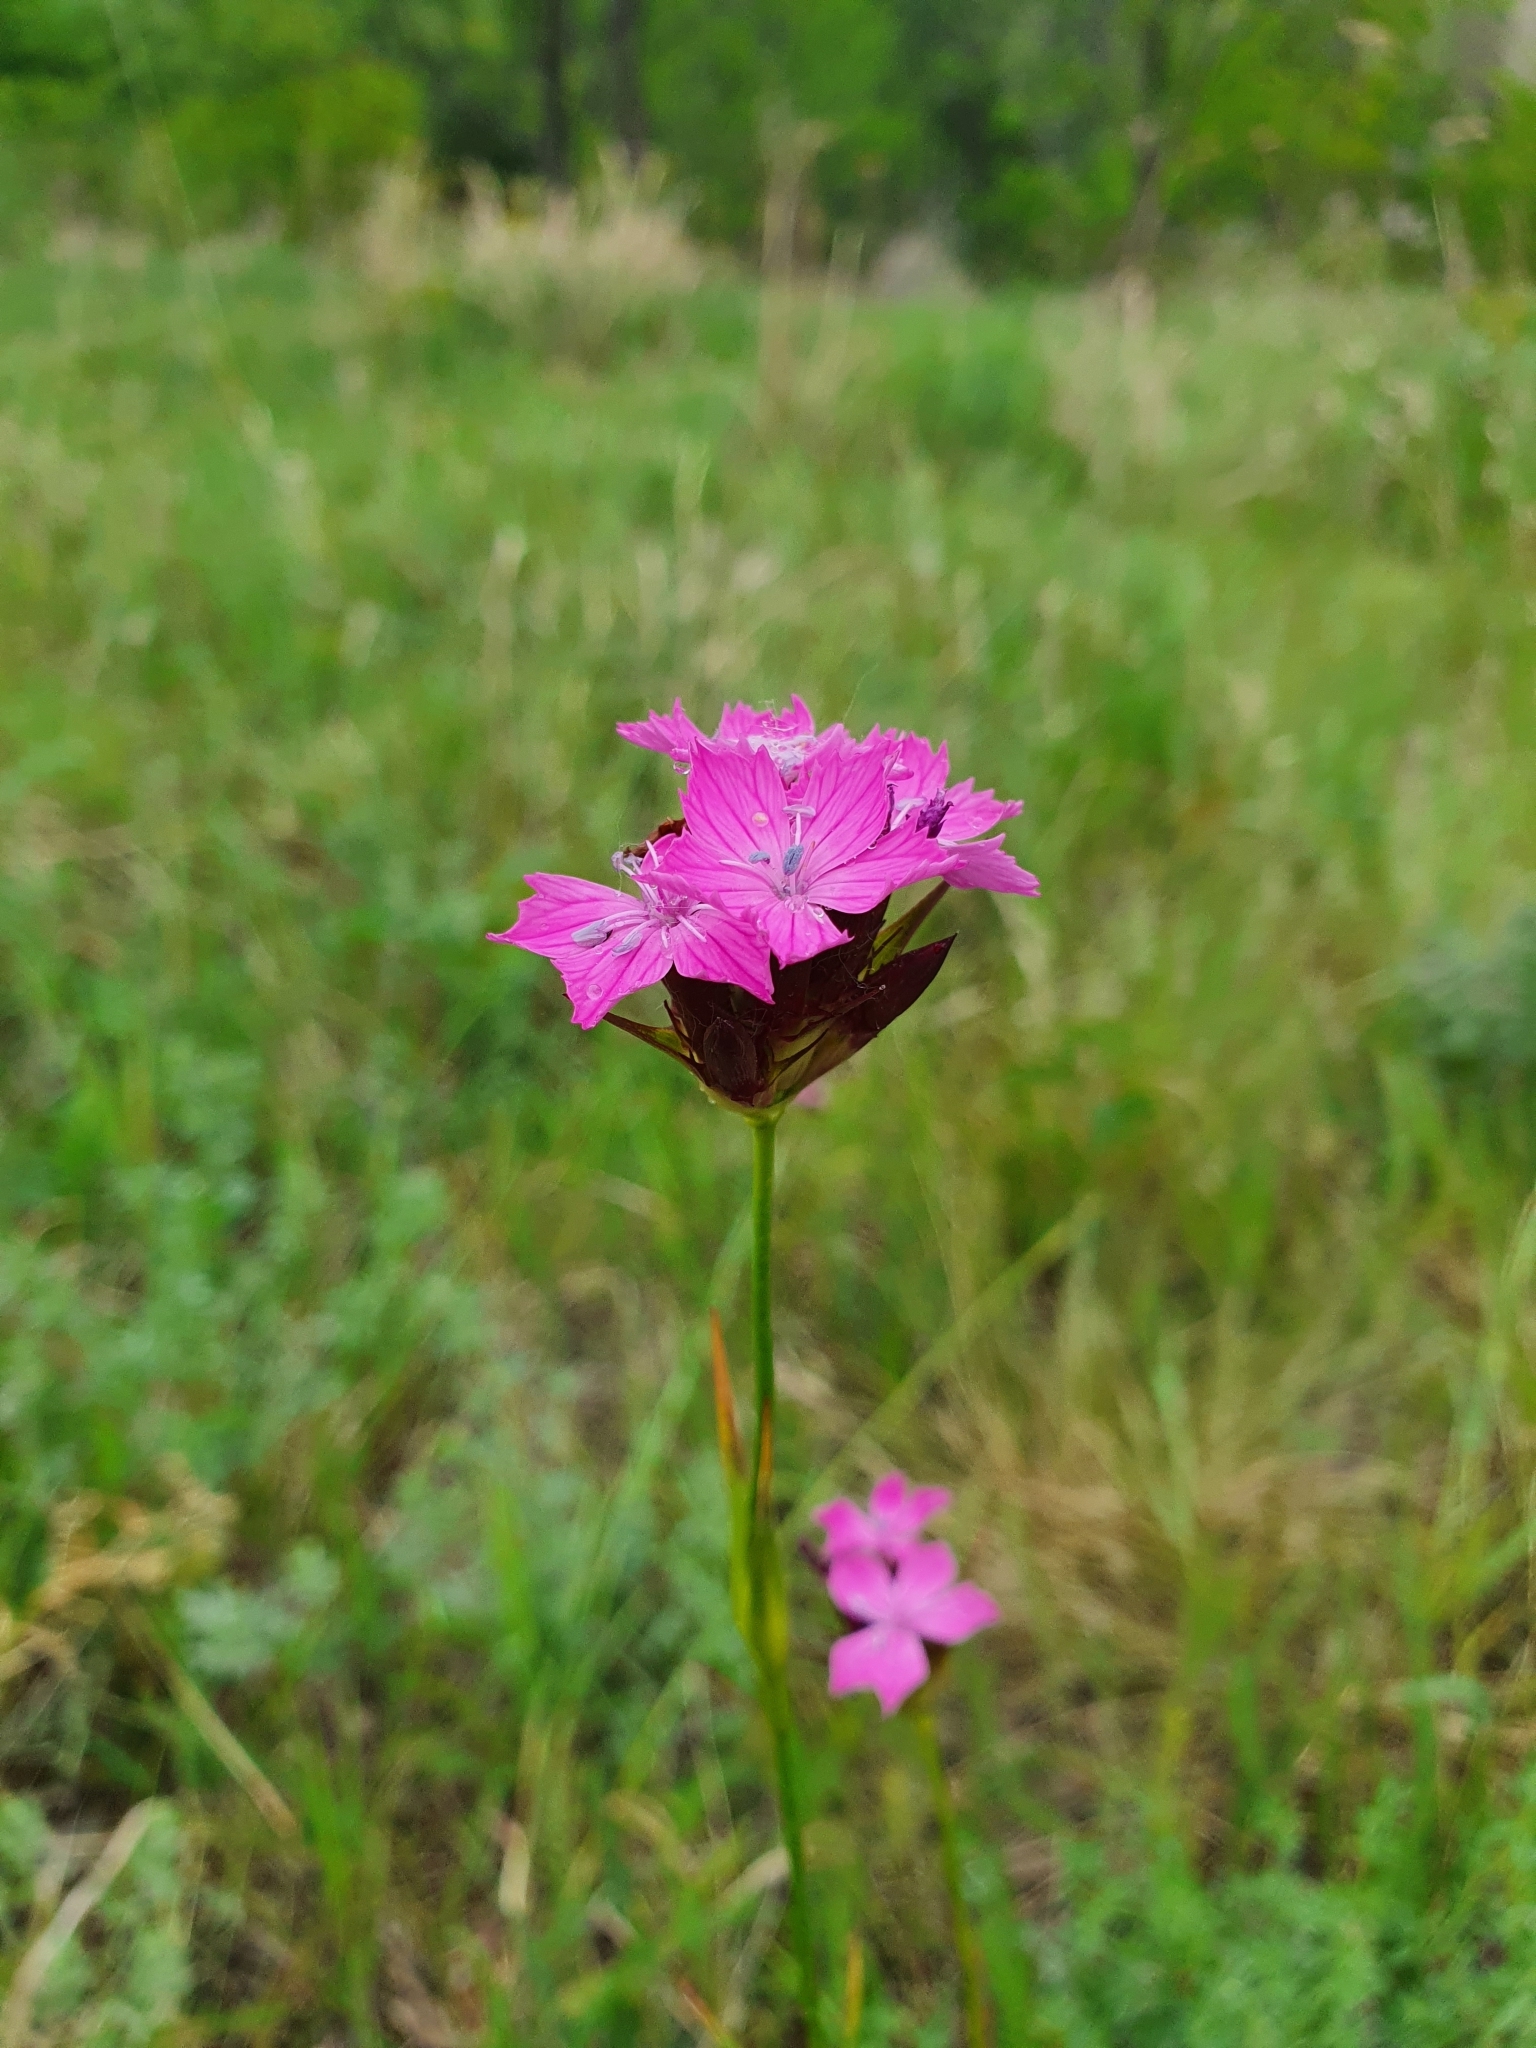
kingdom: Plantae
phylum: Tracheophyta
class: Magnoliopsida
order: Caryophyllales
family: Caryophyllaceae
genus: Dianthus
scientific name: Dianthus capitatus
